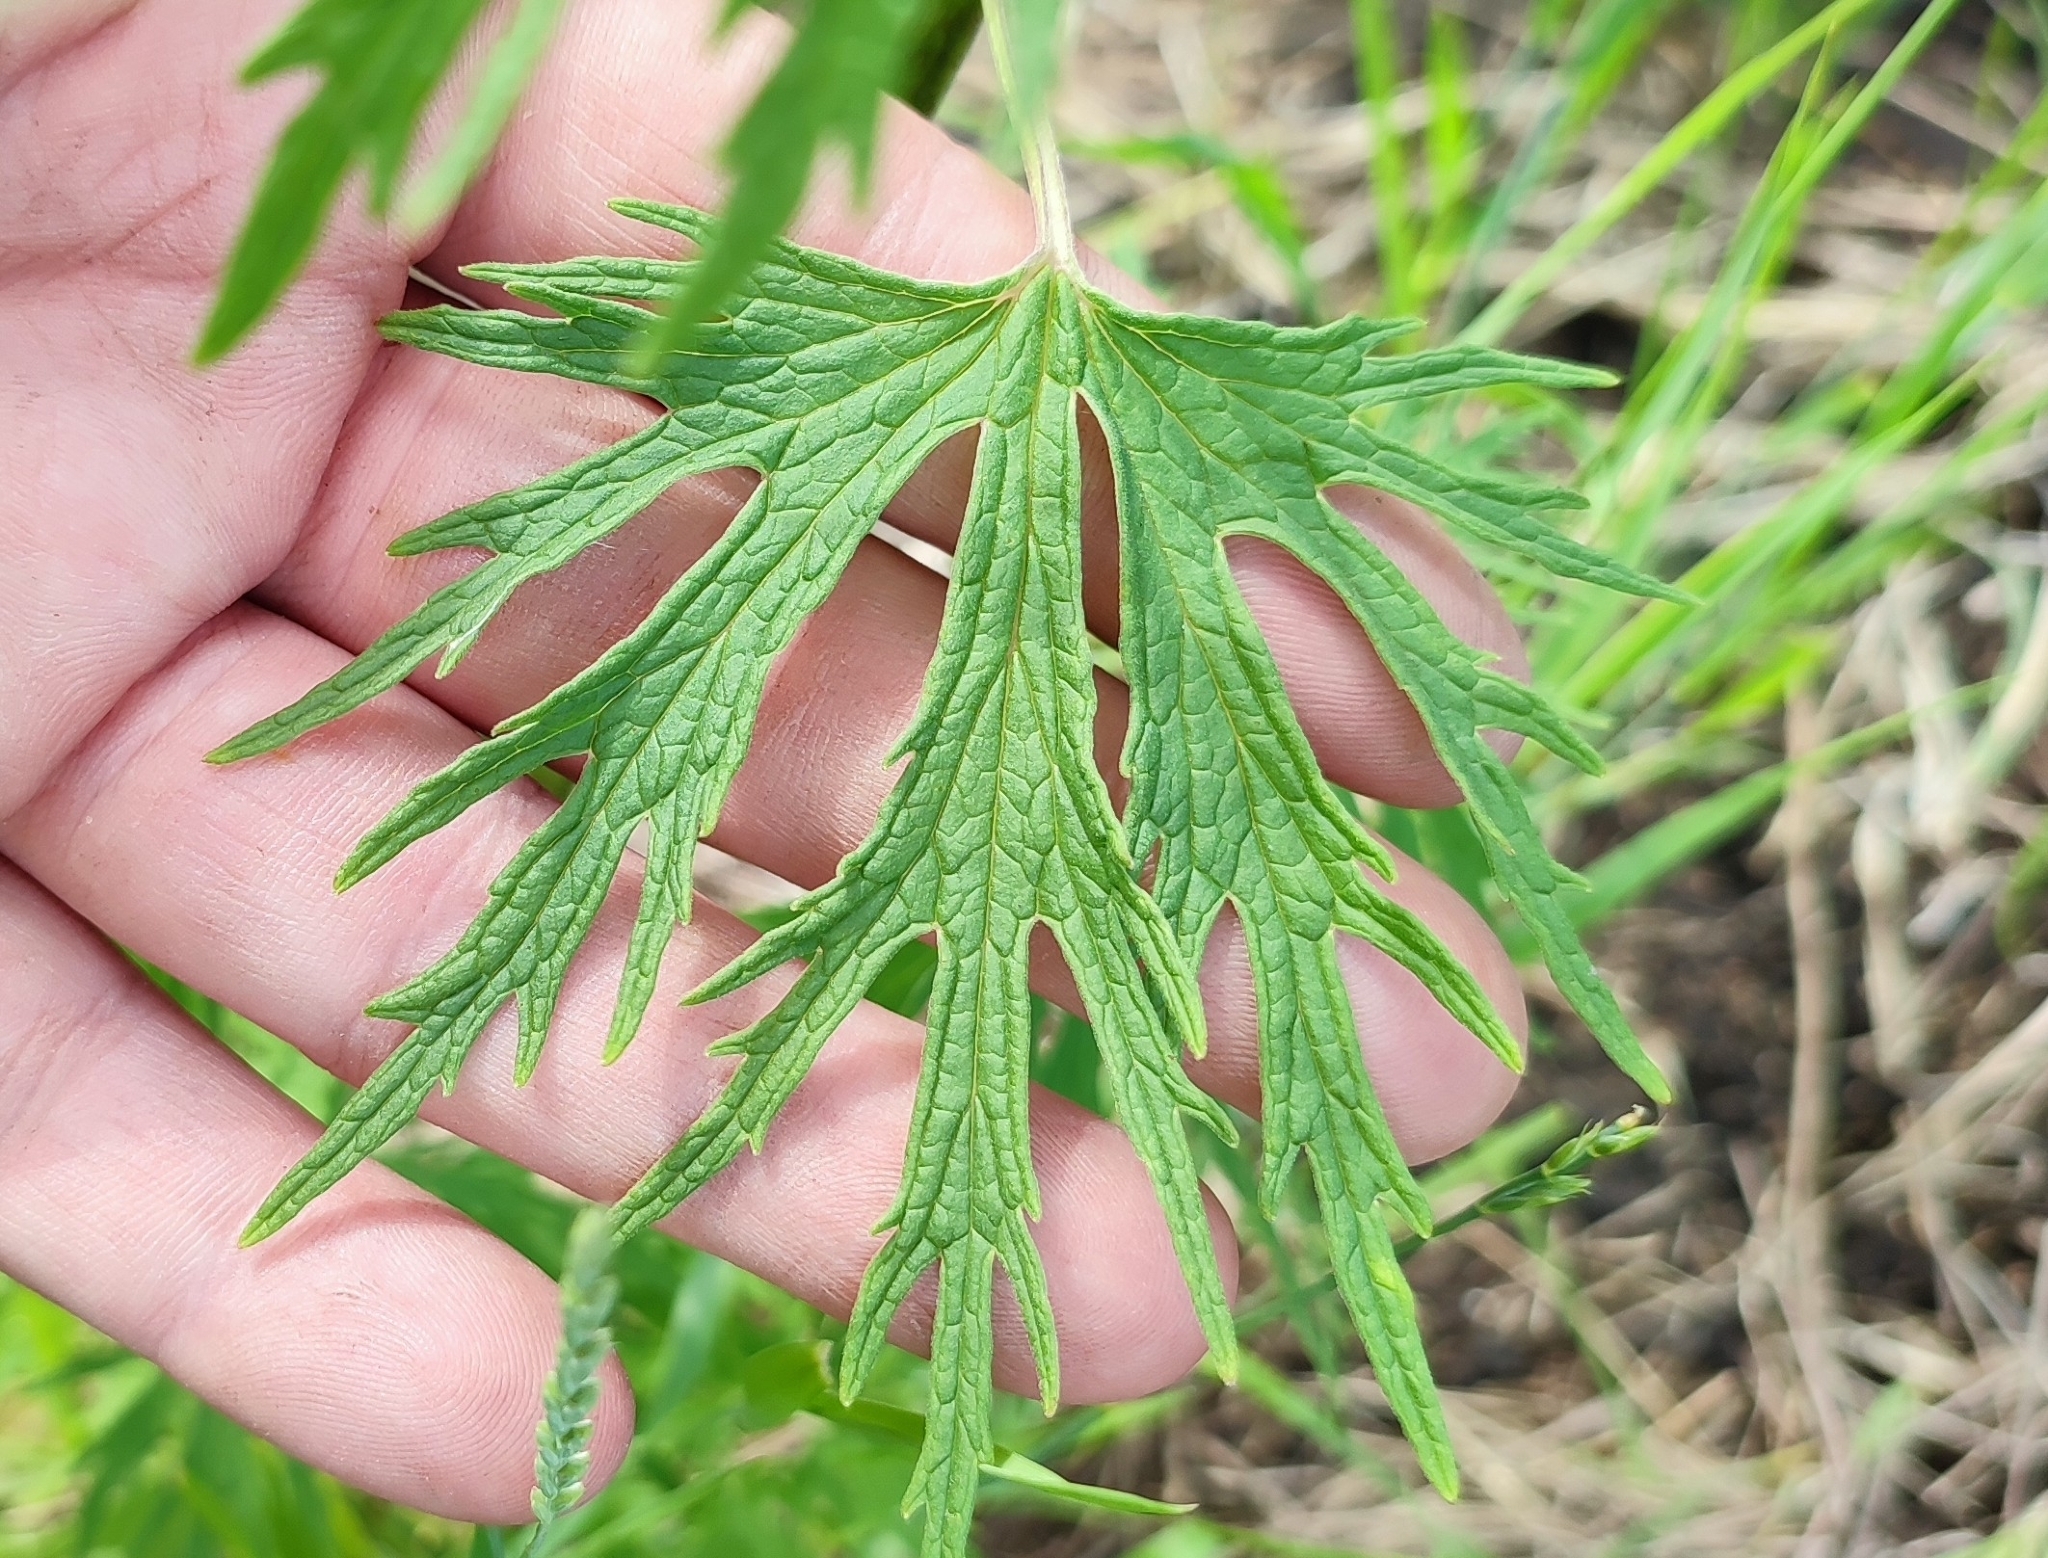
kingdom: Plantae
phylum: Tracheophyta
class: Magnoliopsida
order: Lamiales
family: Lamiaceae
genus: Leonurus
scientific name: Leonurus glaucescens
